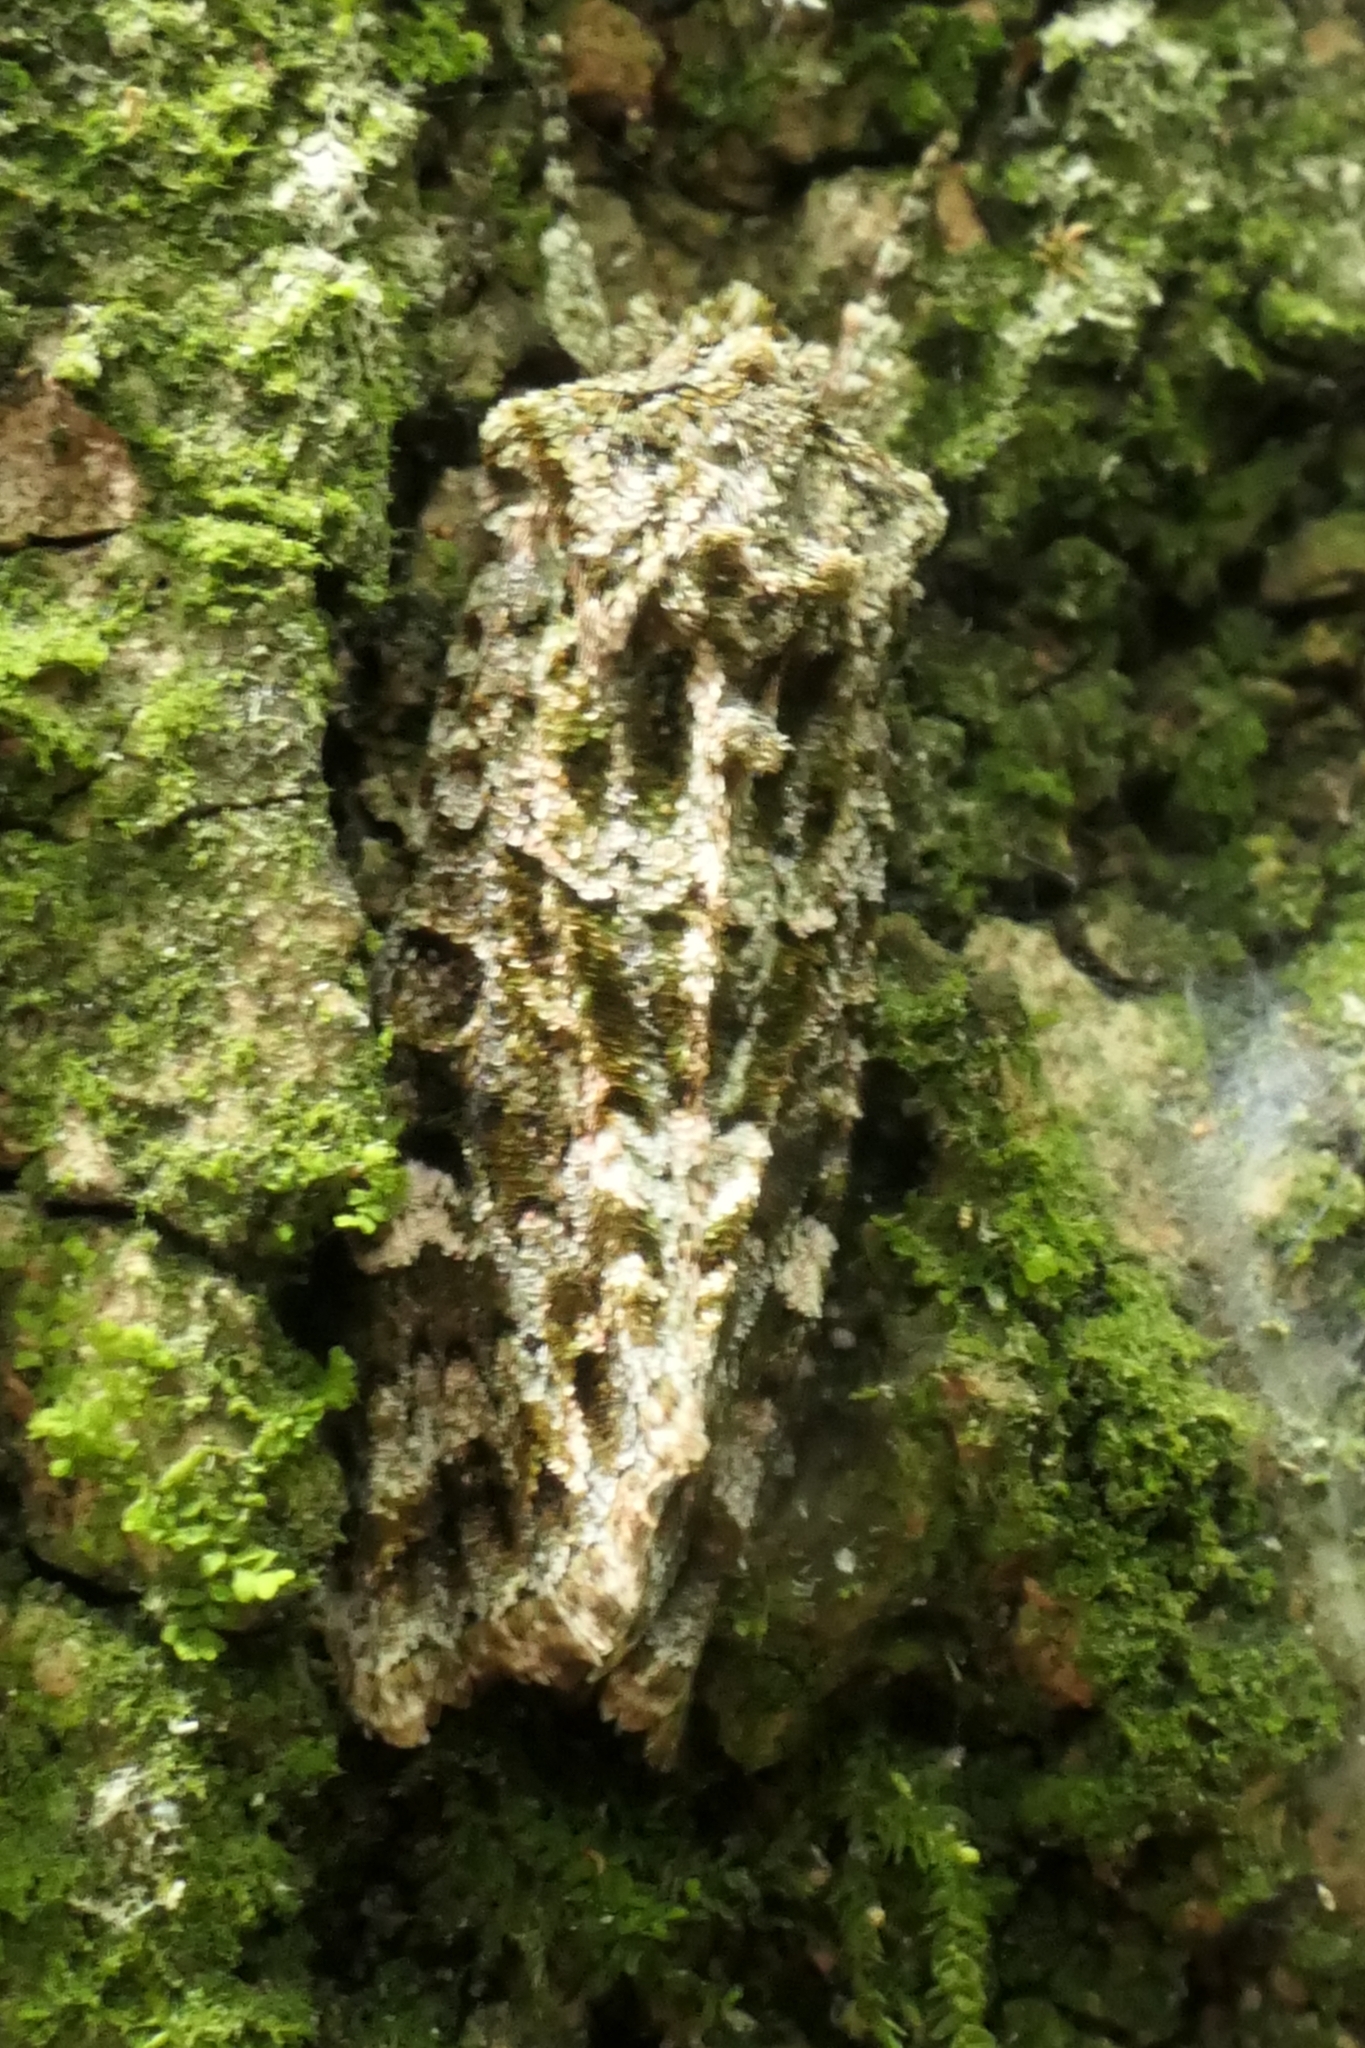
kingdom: Animalia
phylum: Arthropoda
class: Insecta
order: Lepidoptera
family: Noctuidae
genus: Ichneutica
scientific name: Ichneutica
